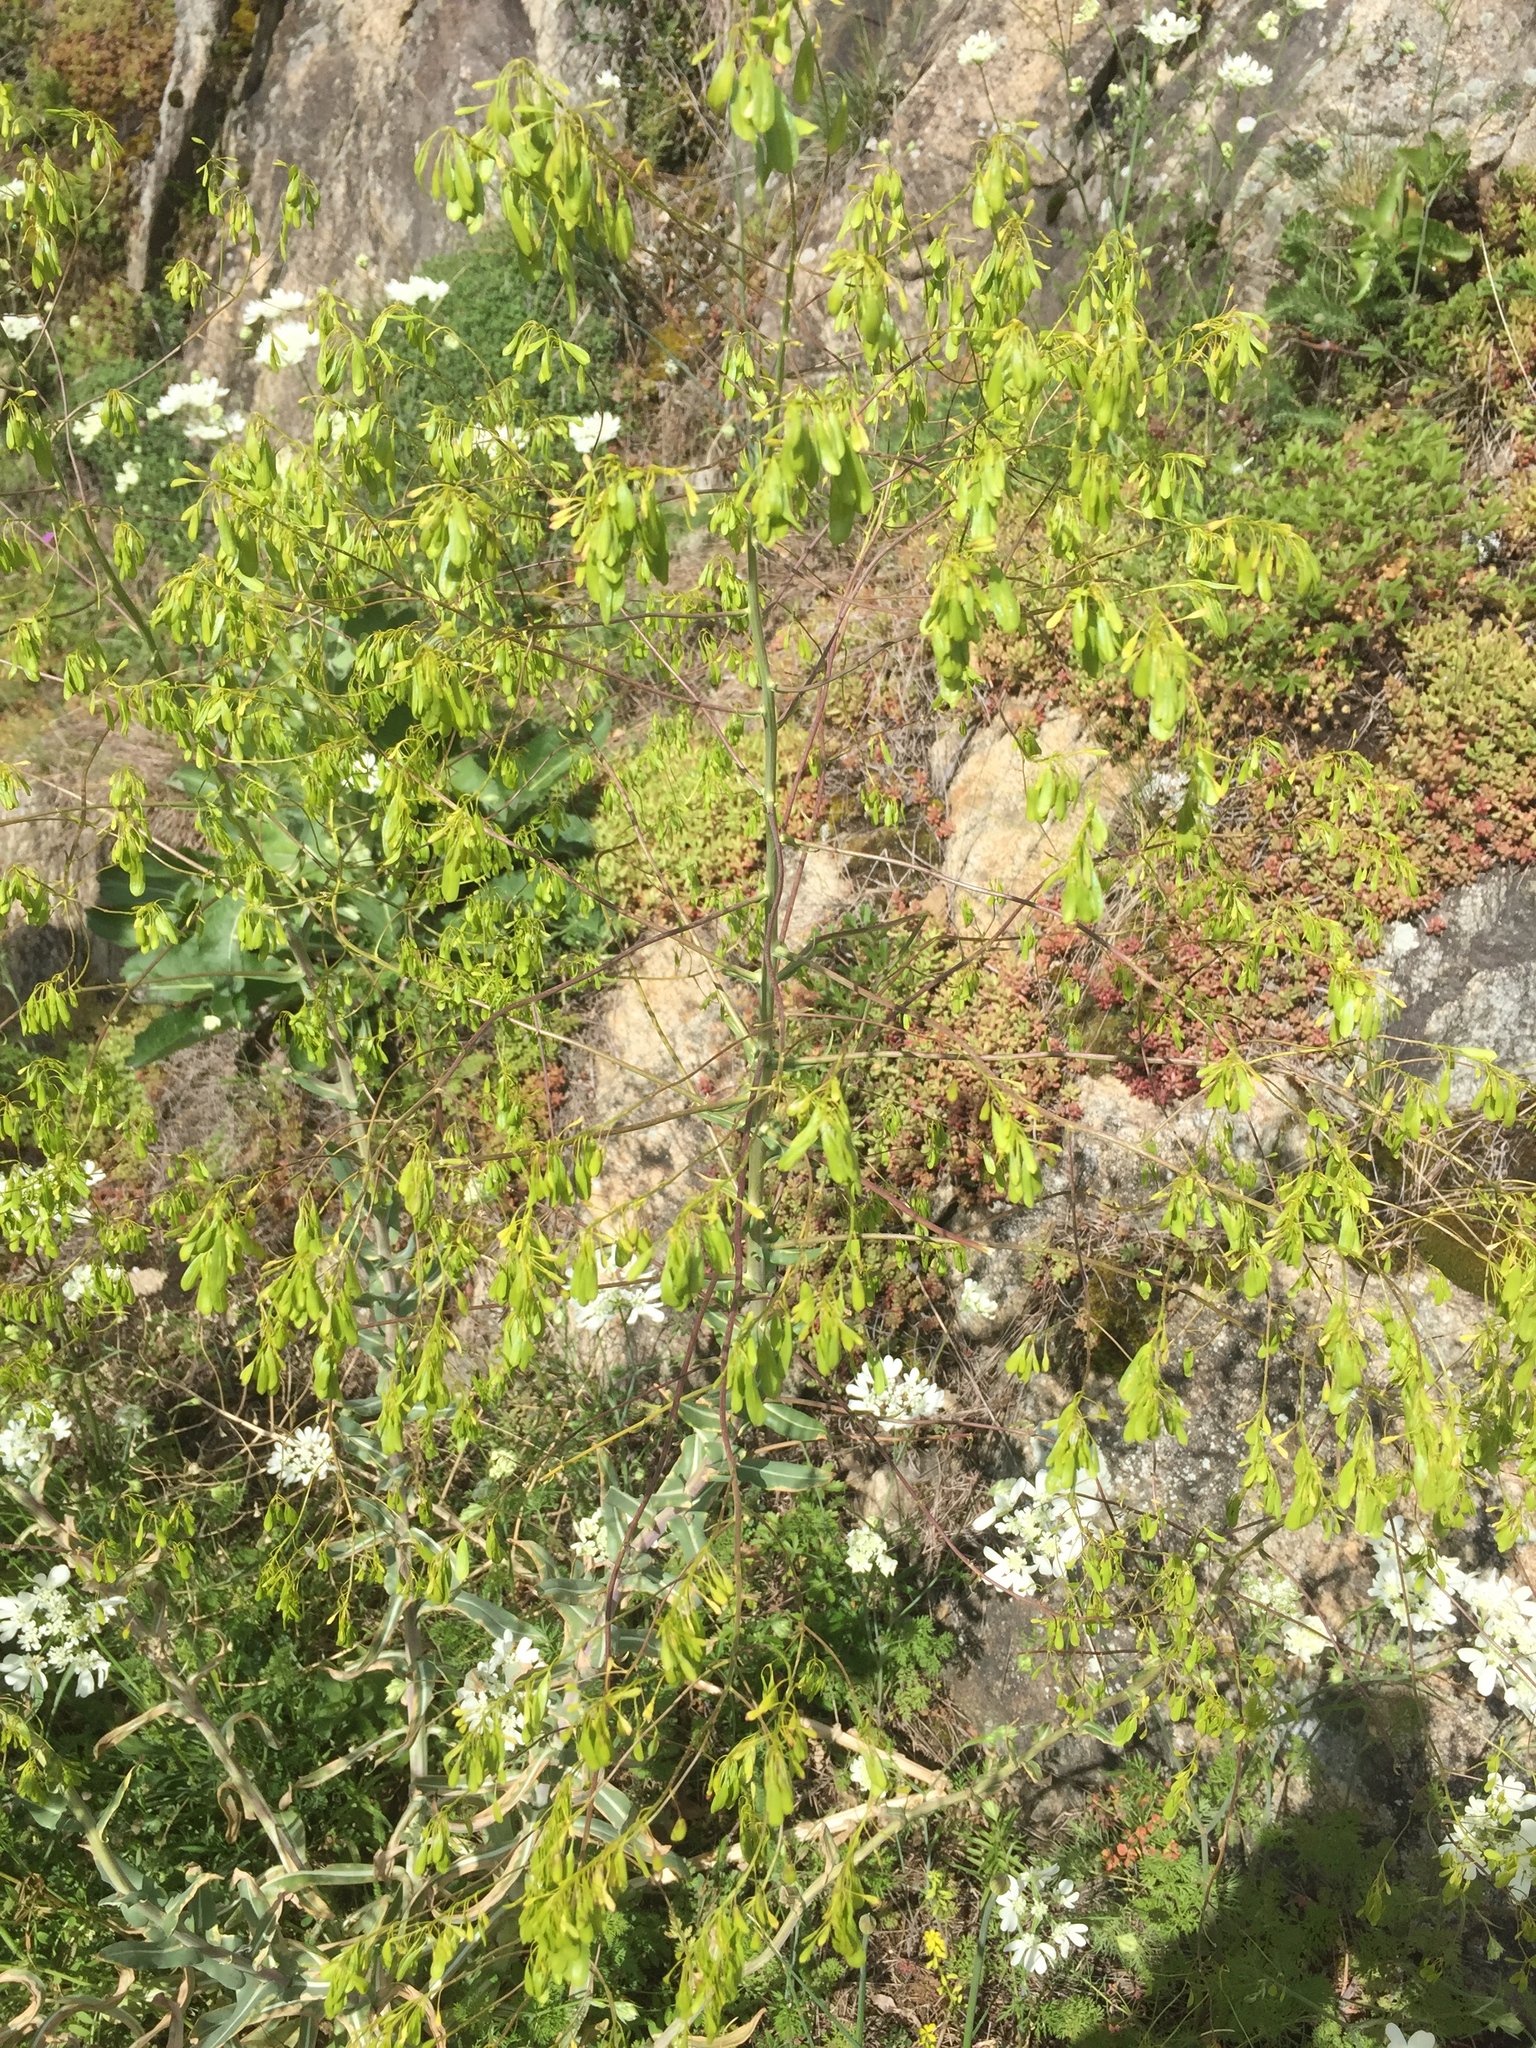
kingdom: Plantae
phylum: Tracheophyta
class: Magnoliopsida
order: Brassicales
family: Brassicaceae
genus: Isatis
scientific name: Isatis tinctoria
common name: Woad
